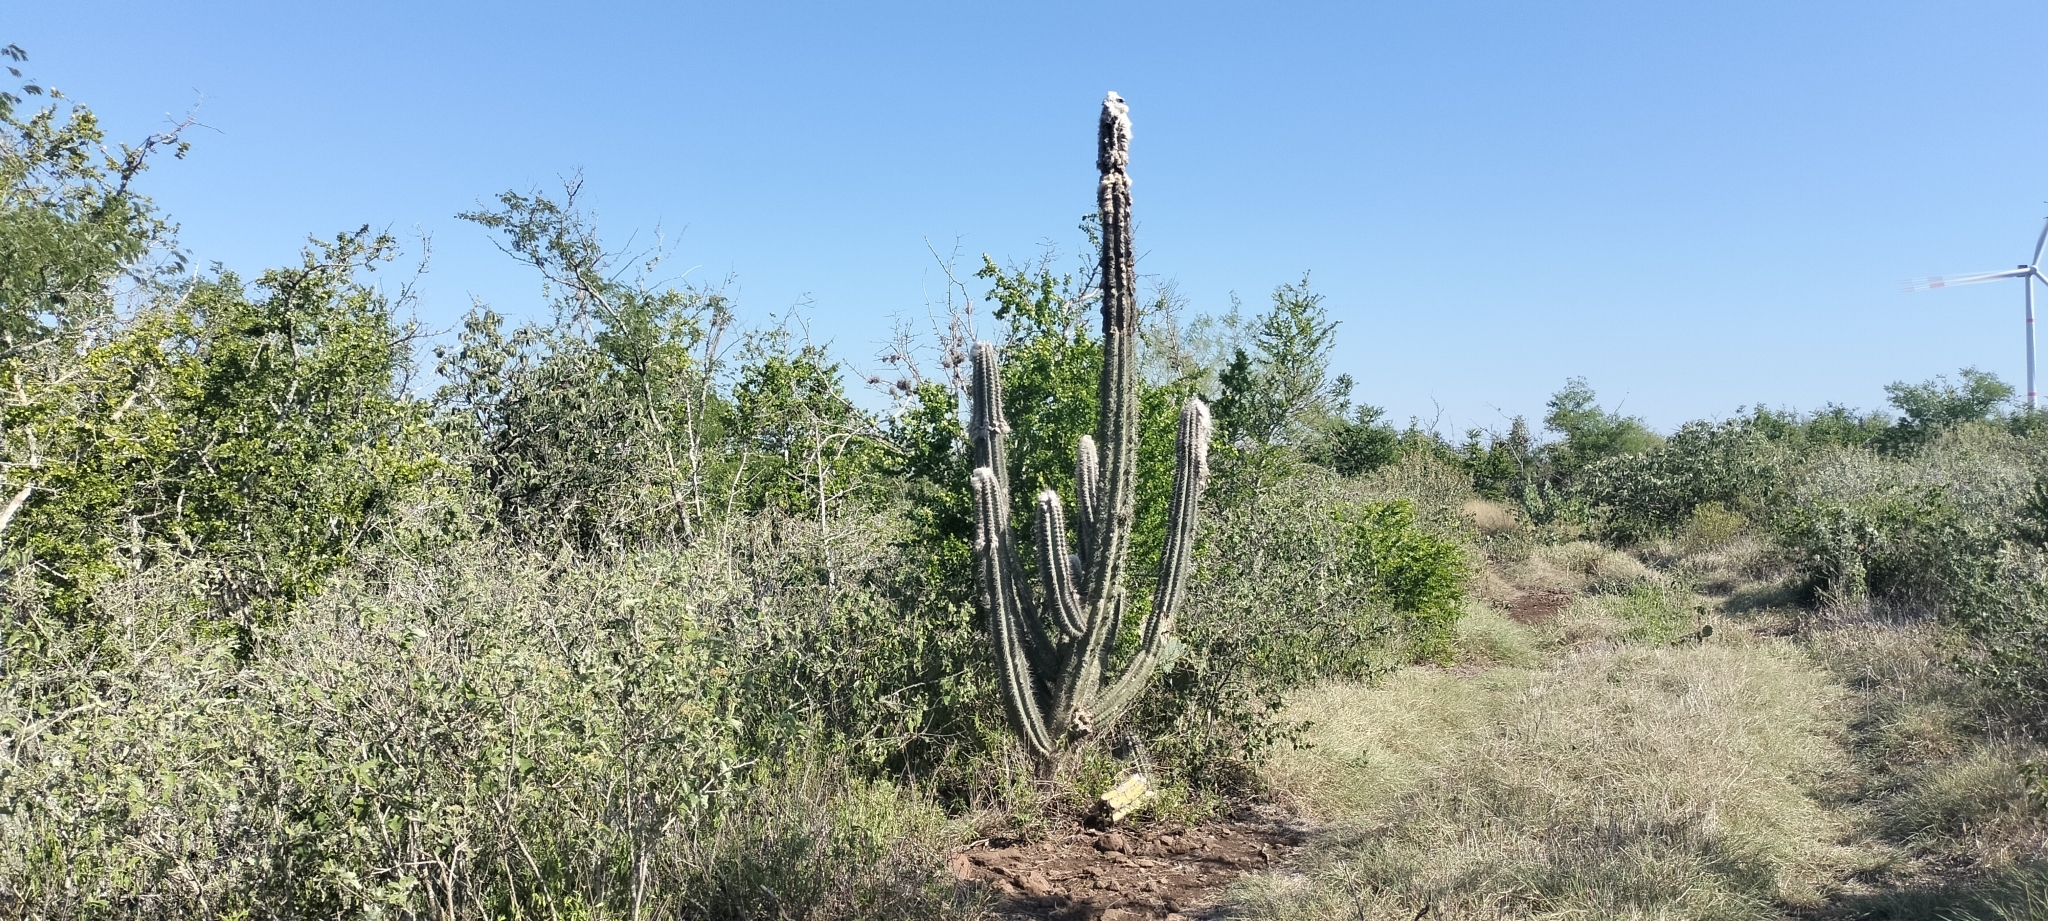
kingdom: Plantae
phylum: Tracheophyta
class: Magnoliopsida
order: Caryophyllales
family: Cactaceae
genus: Pilosocereus
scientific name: Pilosocereus leucocephalus
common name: Old man cactus
